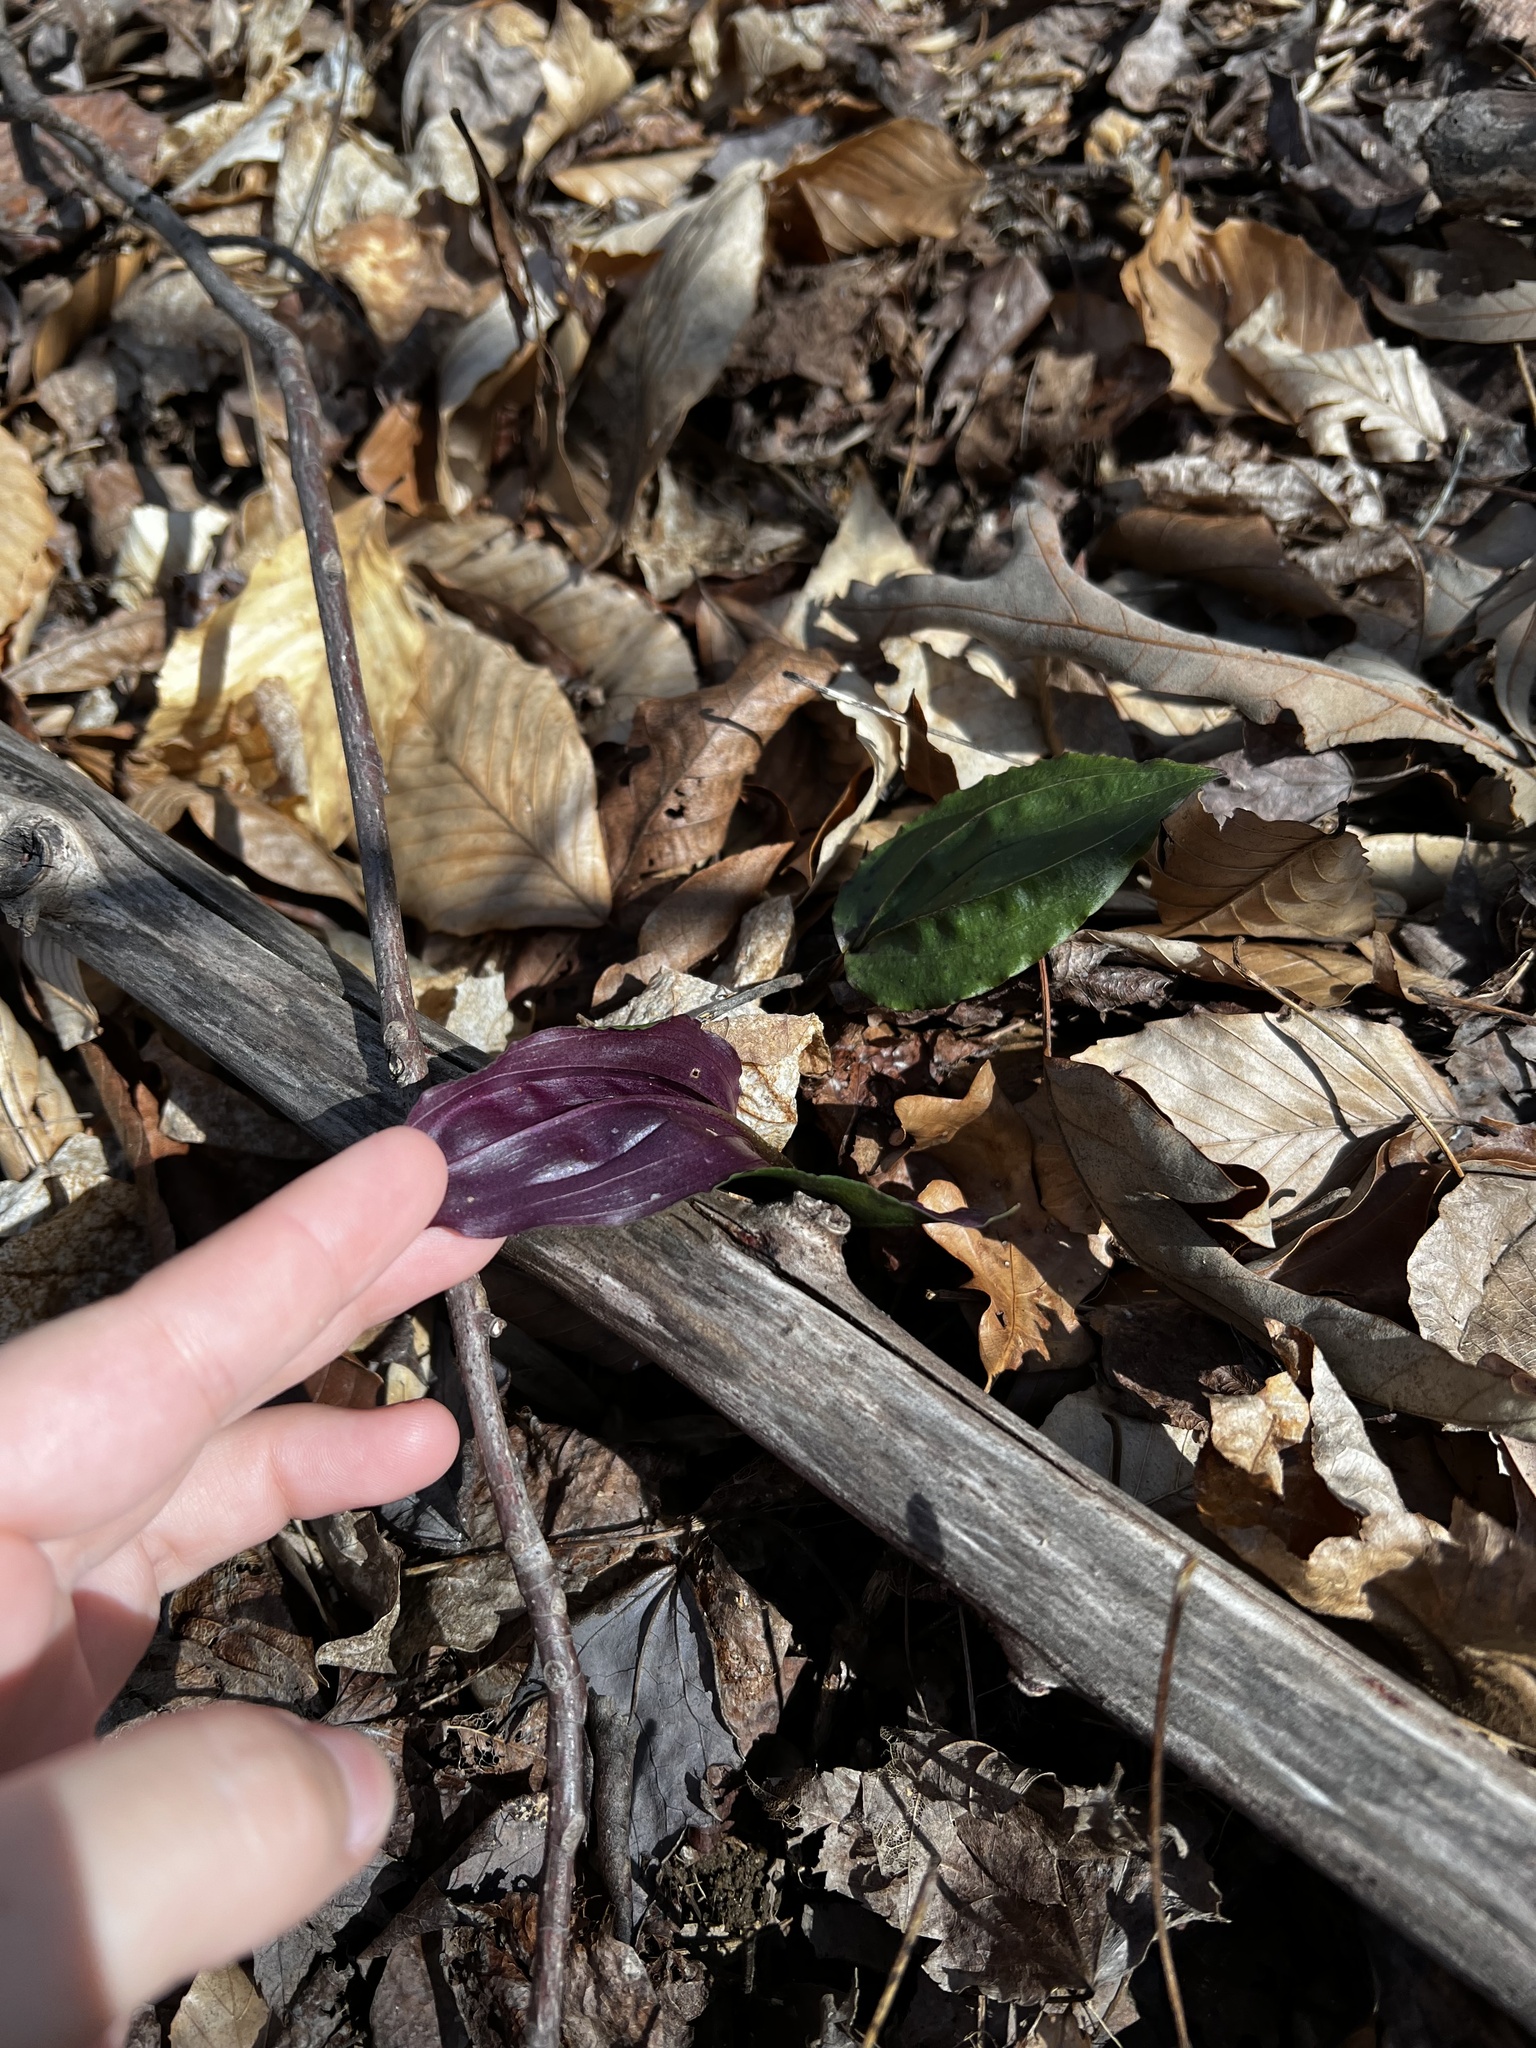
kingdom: Plantae
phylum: Tracheophyta
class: Liliopsida
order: Asparagales
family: Orchidaceae
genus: Tipularia
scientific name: Tipularia discolor
